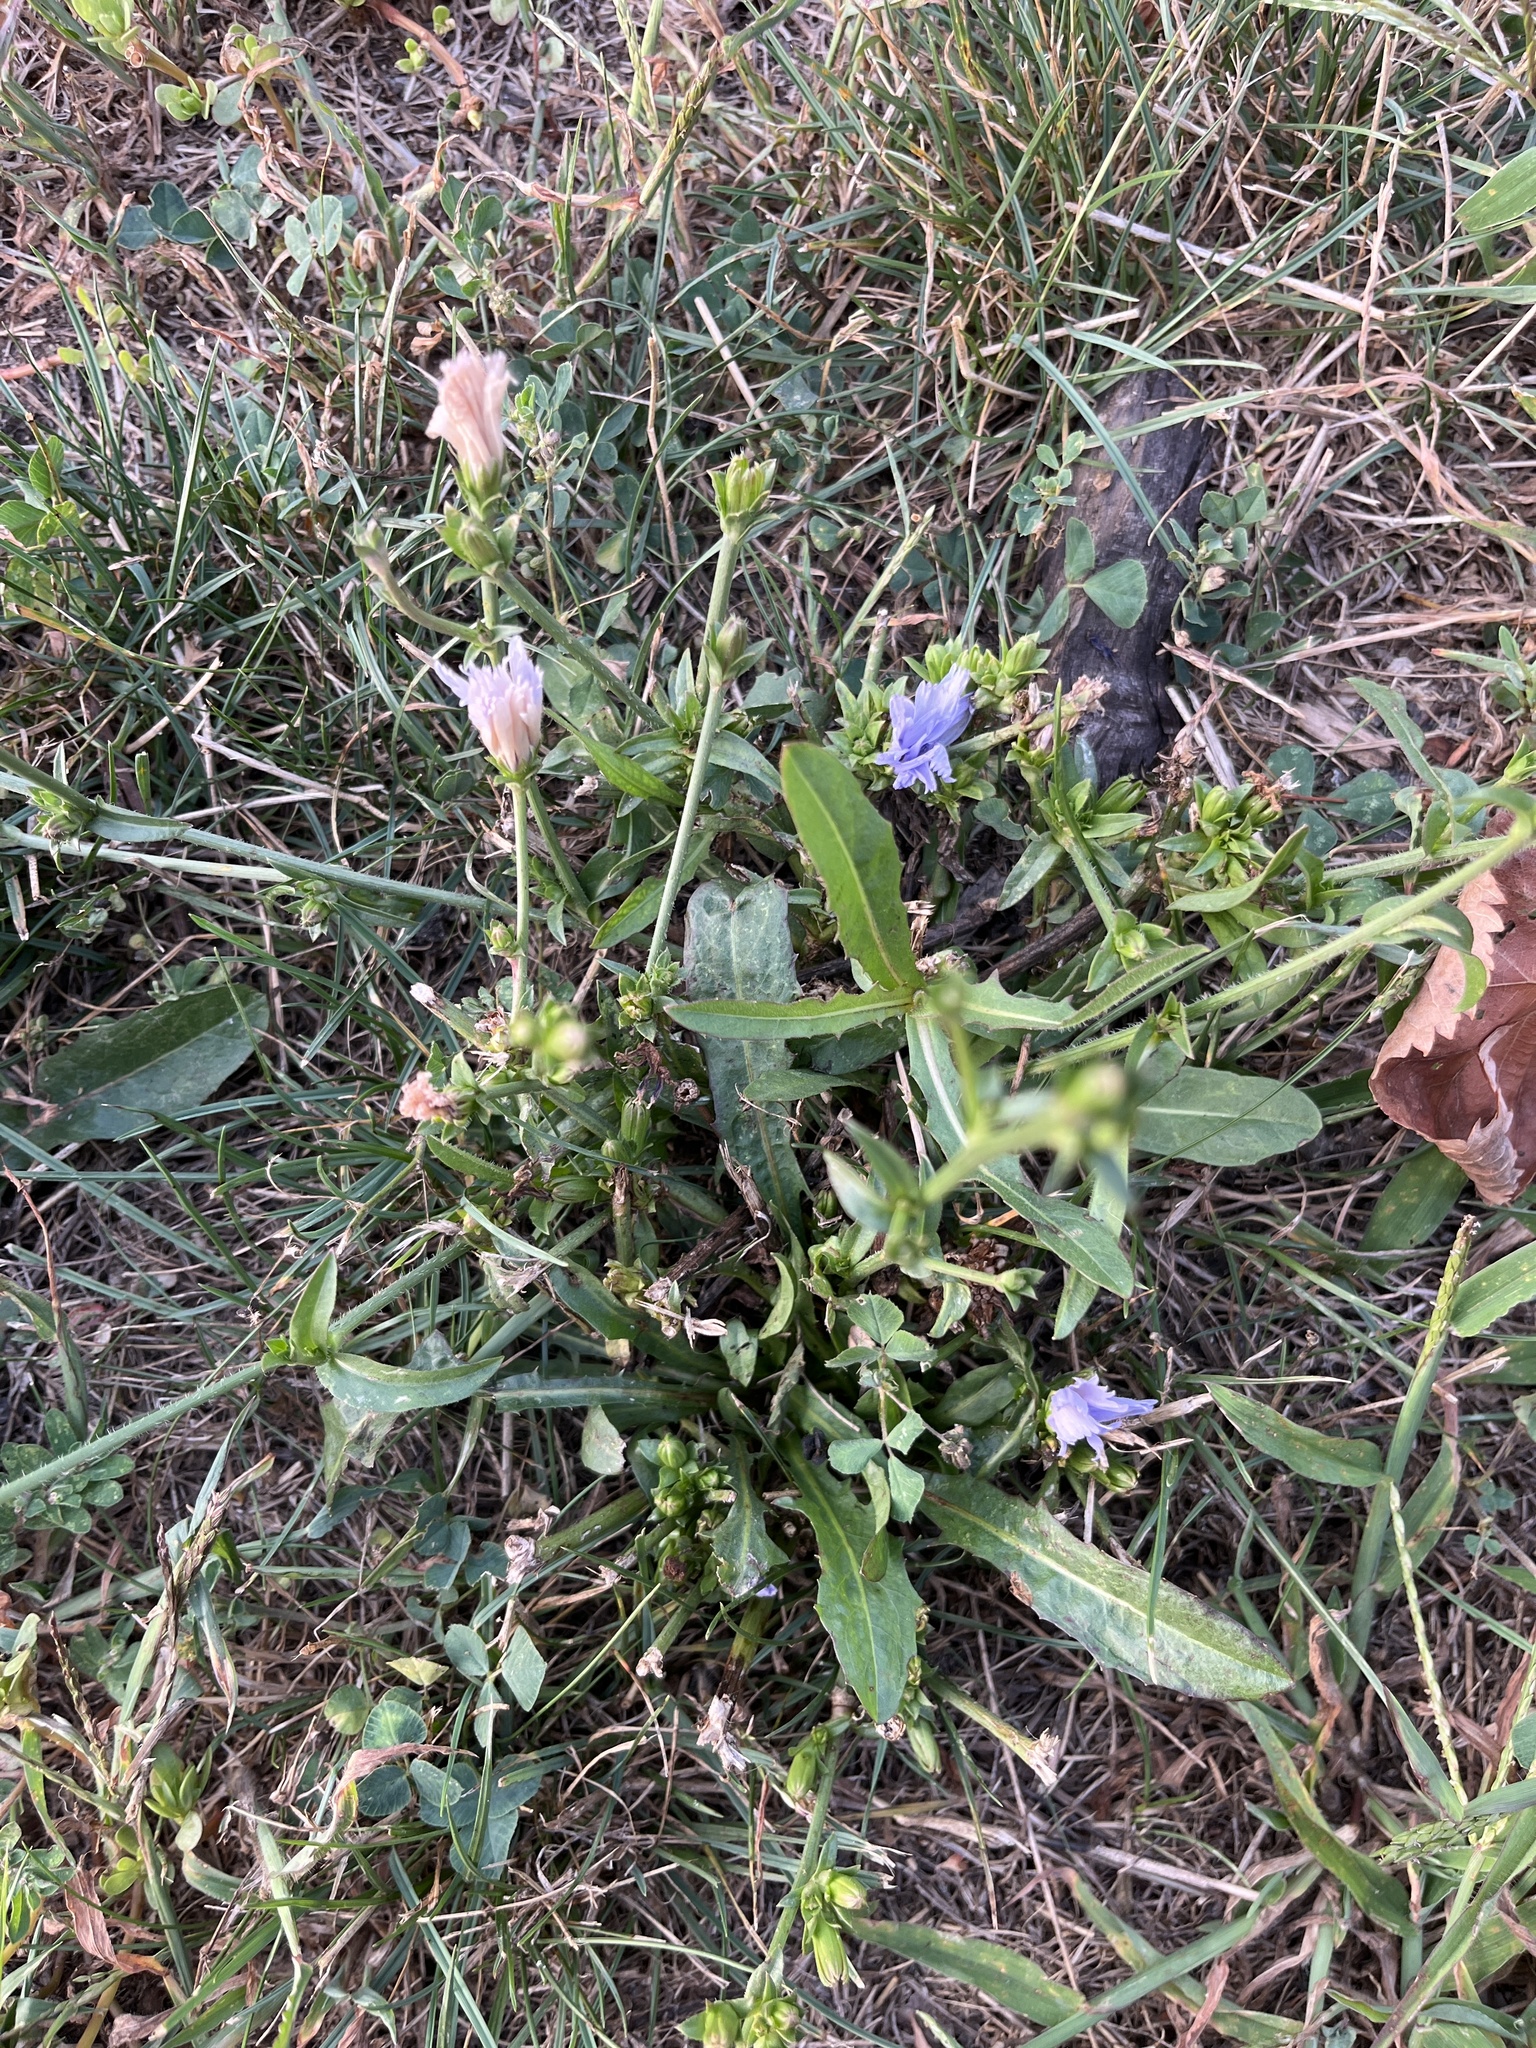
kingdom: Plantae
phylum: Tracheophyta
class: Magnoliopsida
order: Asterales
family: Asteraceae
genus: Cichorium
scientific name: Cichorium intybus
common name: Chicory
